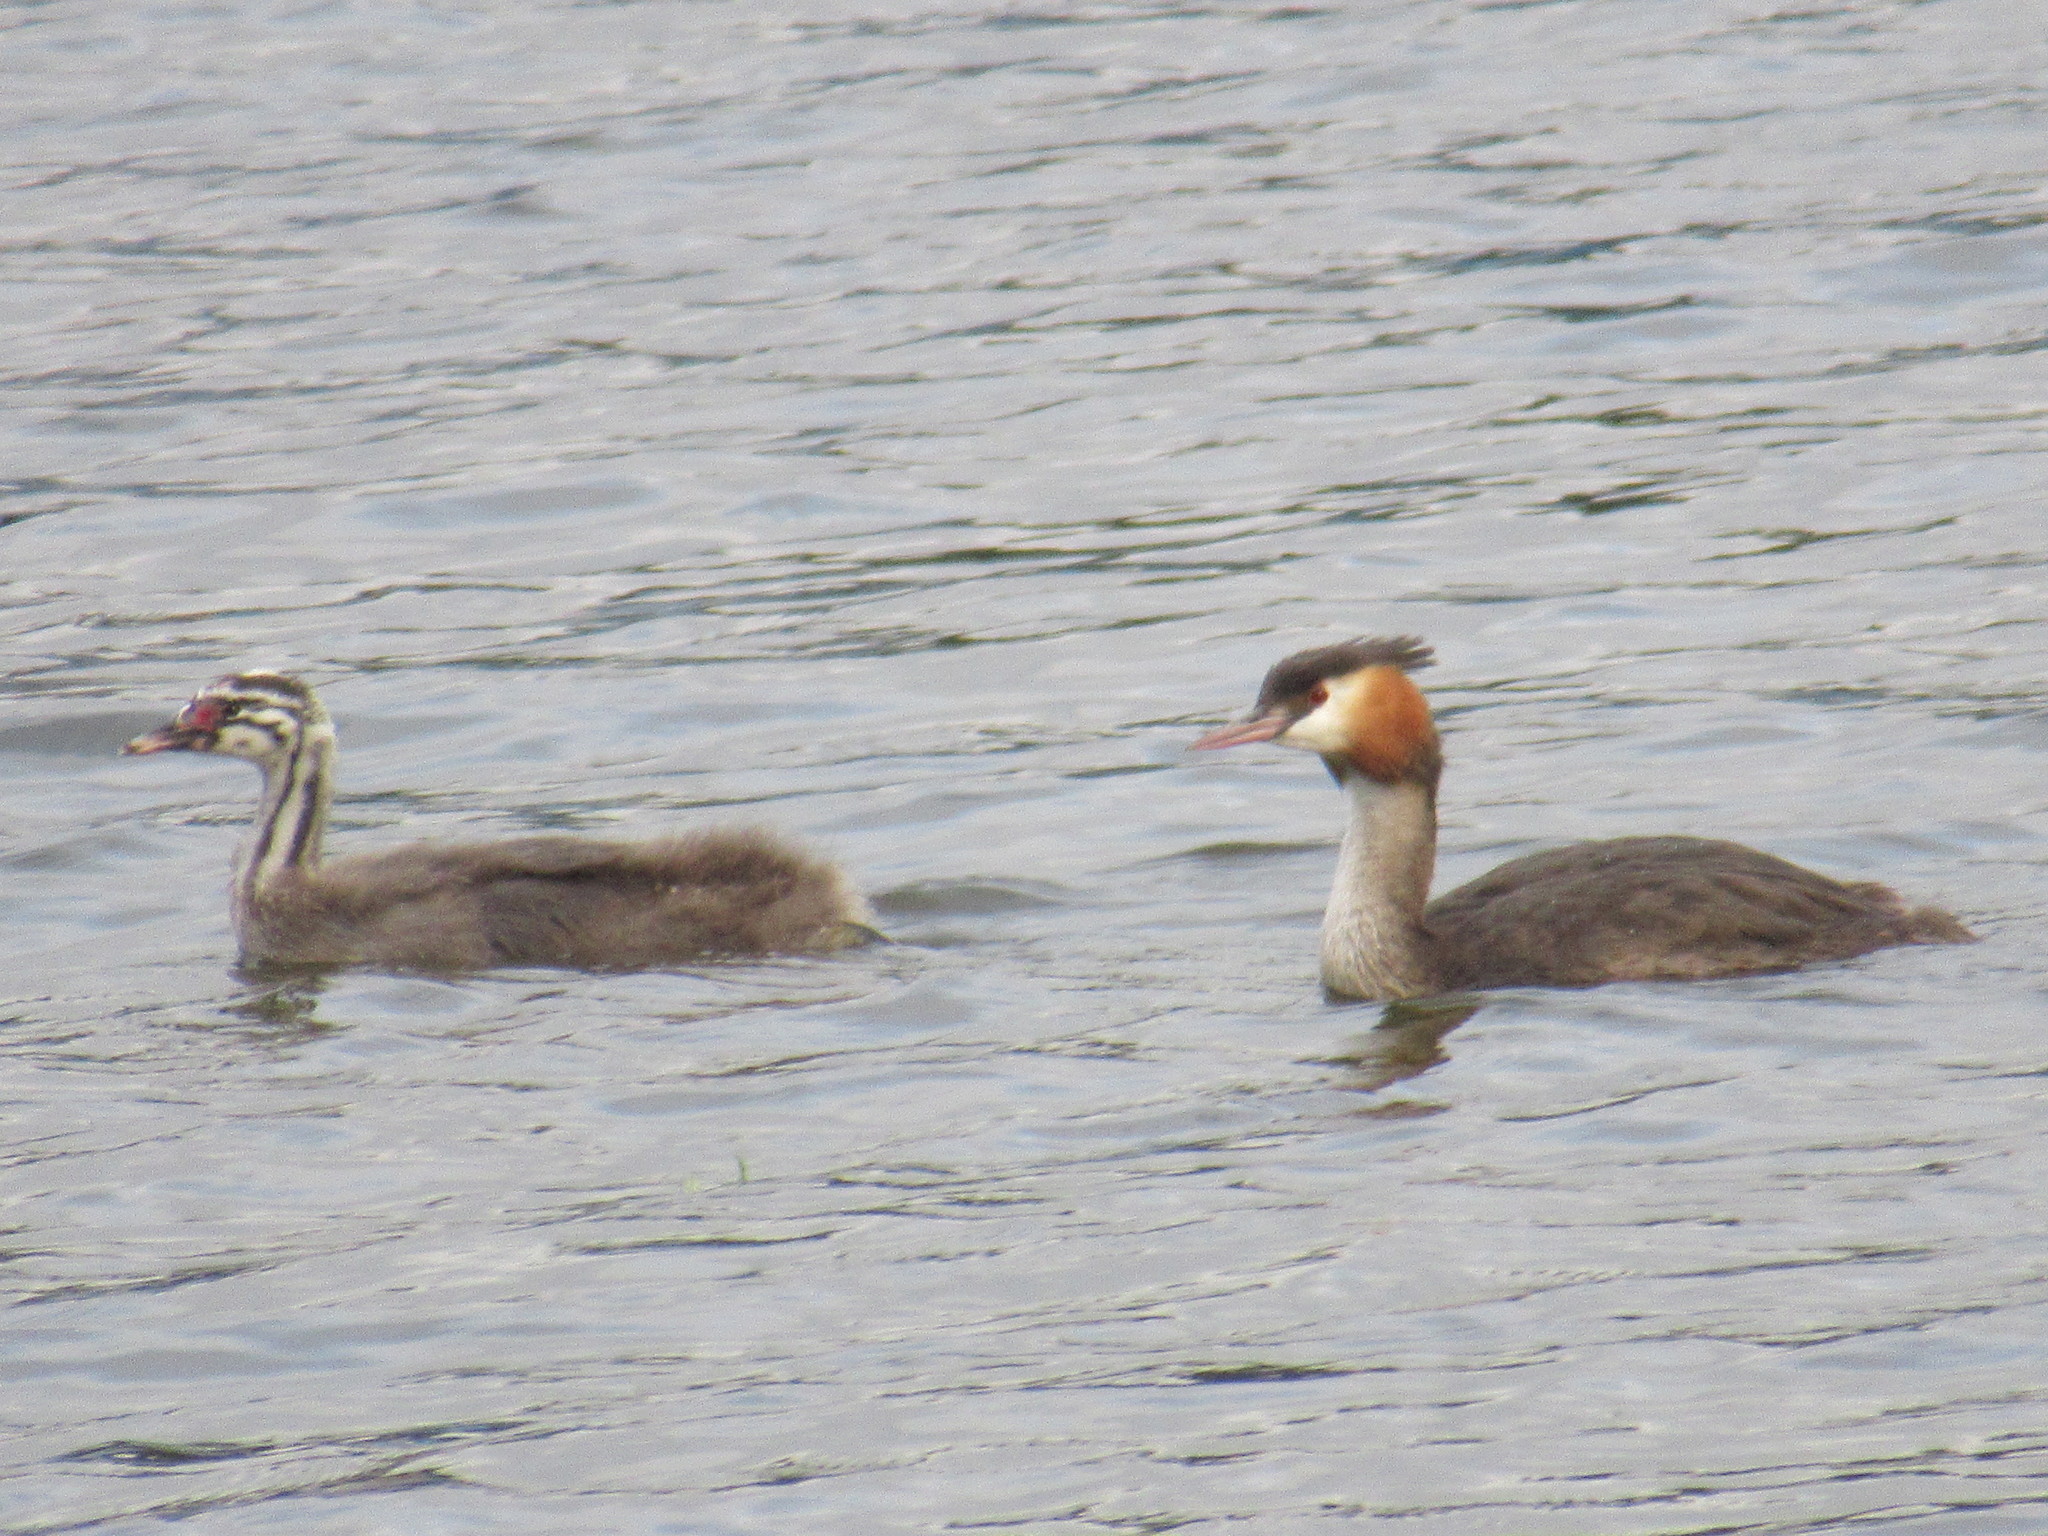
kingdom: Animalia
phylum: Chordata
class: Aves
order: Podicipediformes
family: Podicipedidae
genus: Podiceps
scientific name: Podiceps cristatus
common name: Great crested grebe
